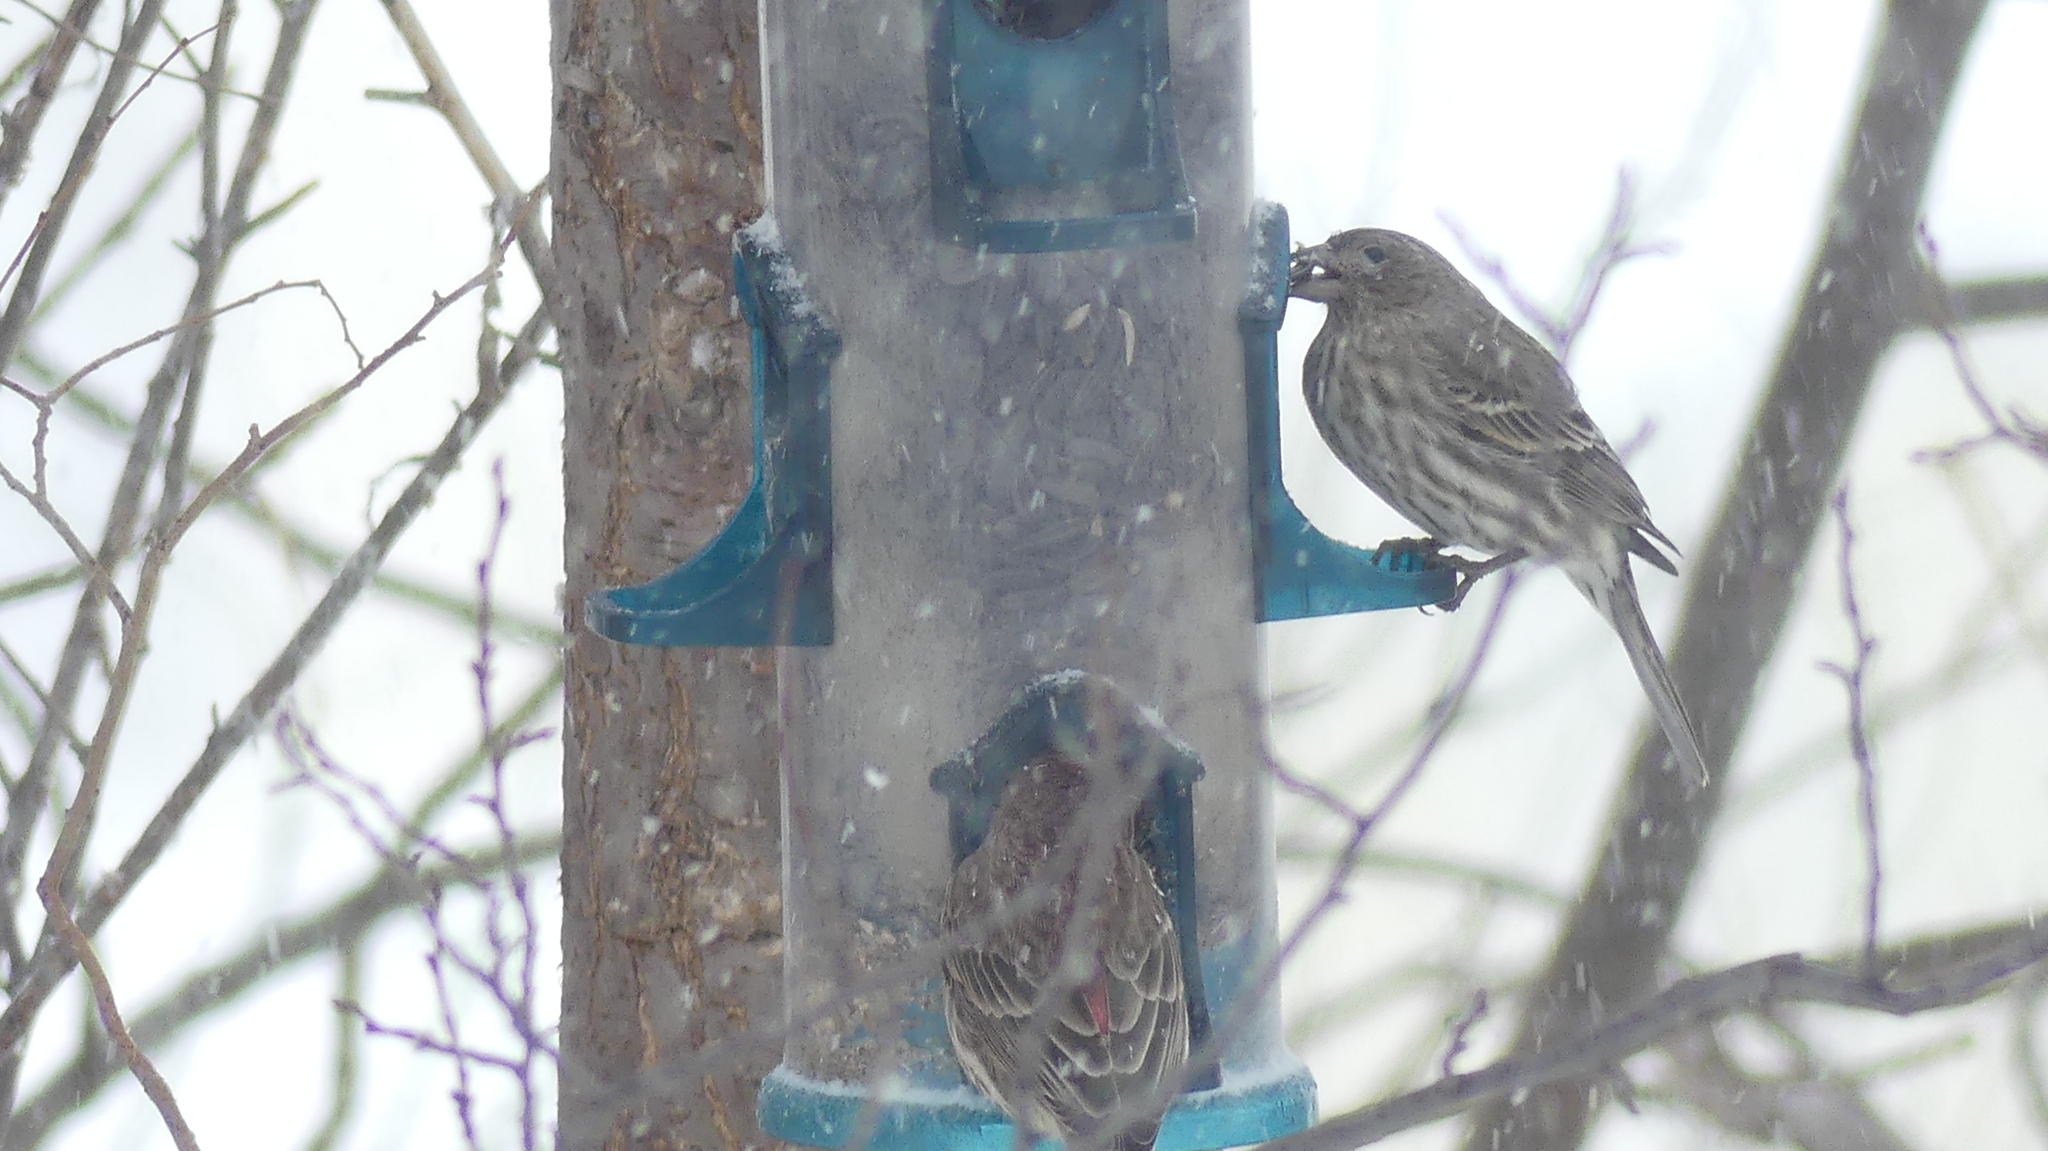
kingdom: Animalia
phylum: Chordata
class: Aves
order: Passeriformes
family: Fringillidae
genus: Haemorhous
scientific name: Haemorhous mexicanus
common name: House finch
